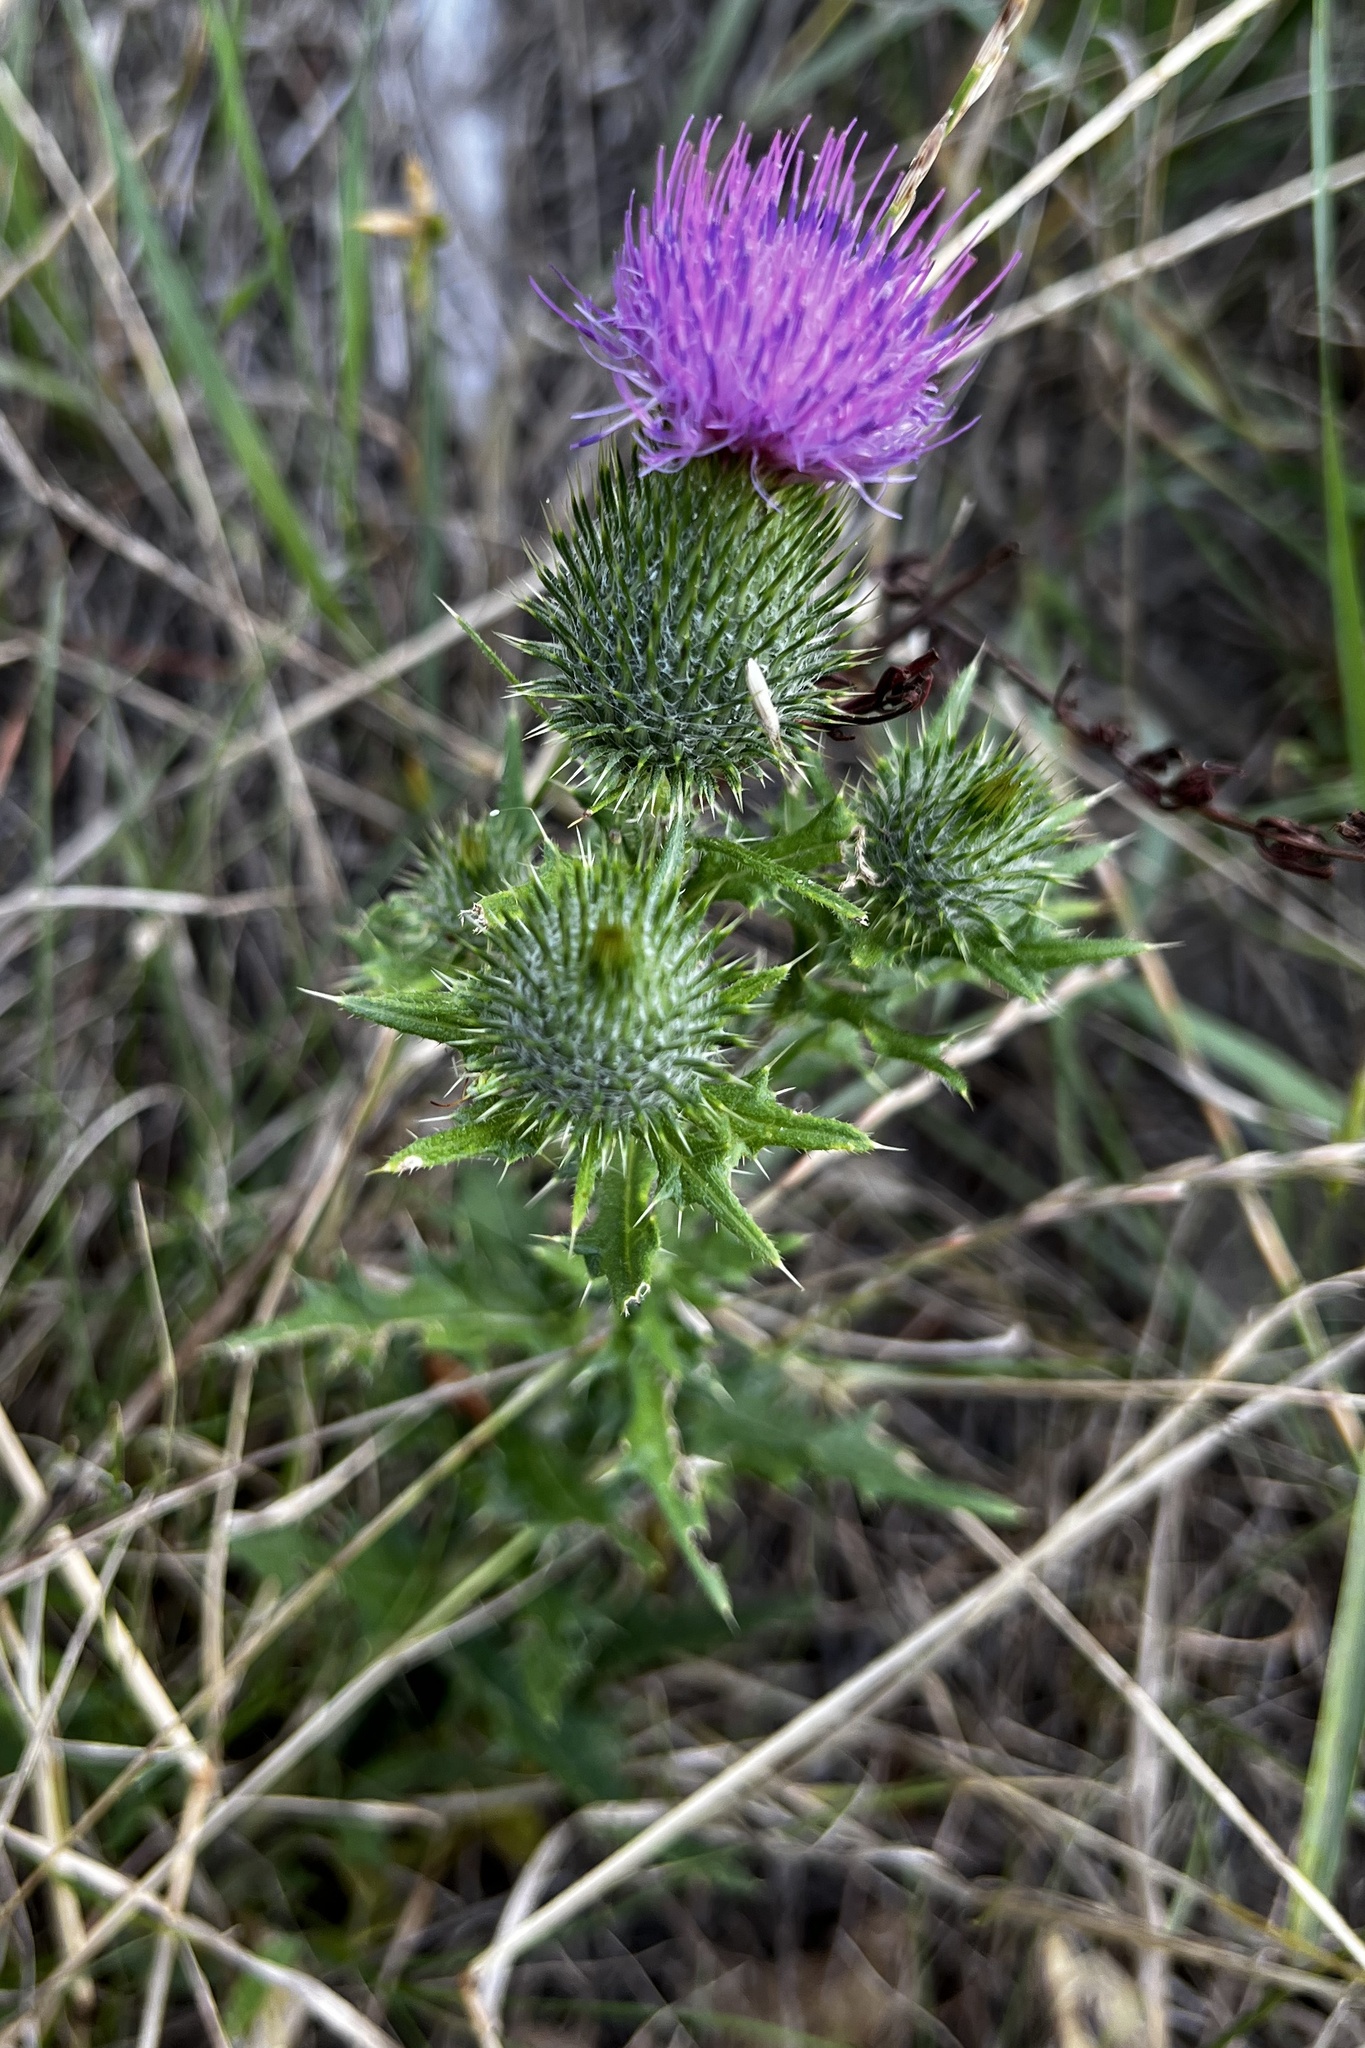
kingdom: Plantae
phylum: Tracheophyta
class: Magnoliopsida
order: Asterales
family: Asteraceae
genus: Cirsium
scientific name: Cirsium vulgare
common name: Bull thistle
